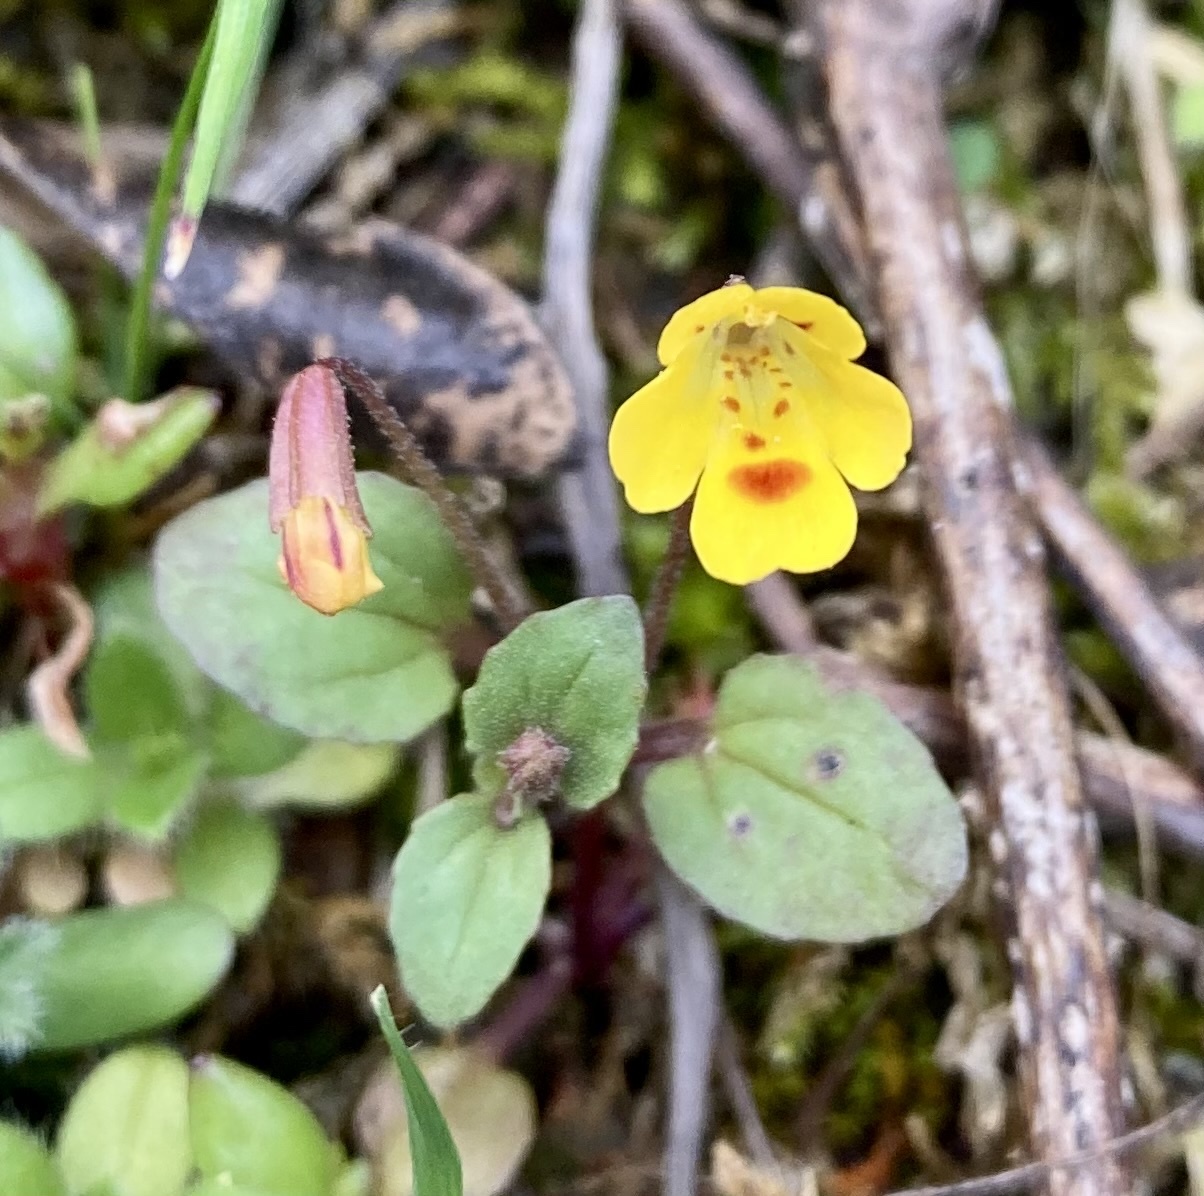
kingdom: Plantae
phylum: Tracheophyta
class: Magnoliopsida
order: Lamiales
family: Phrymaceae
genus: Erythranthe
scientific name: Erythranthe alsinoides
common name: Chickweed monkeyflower
